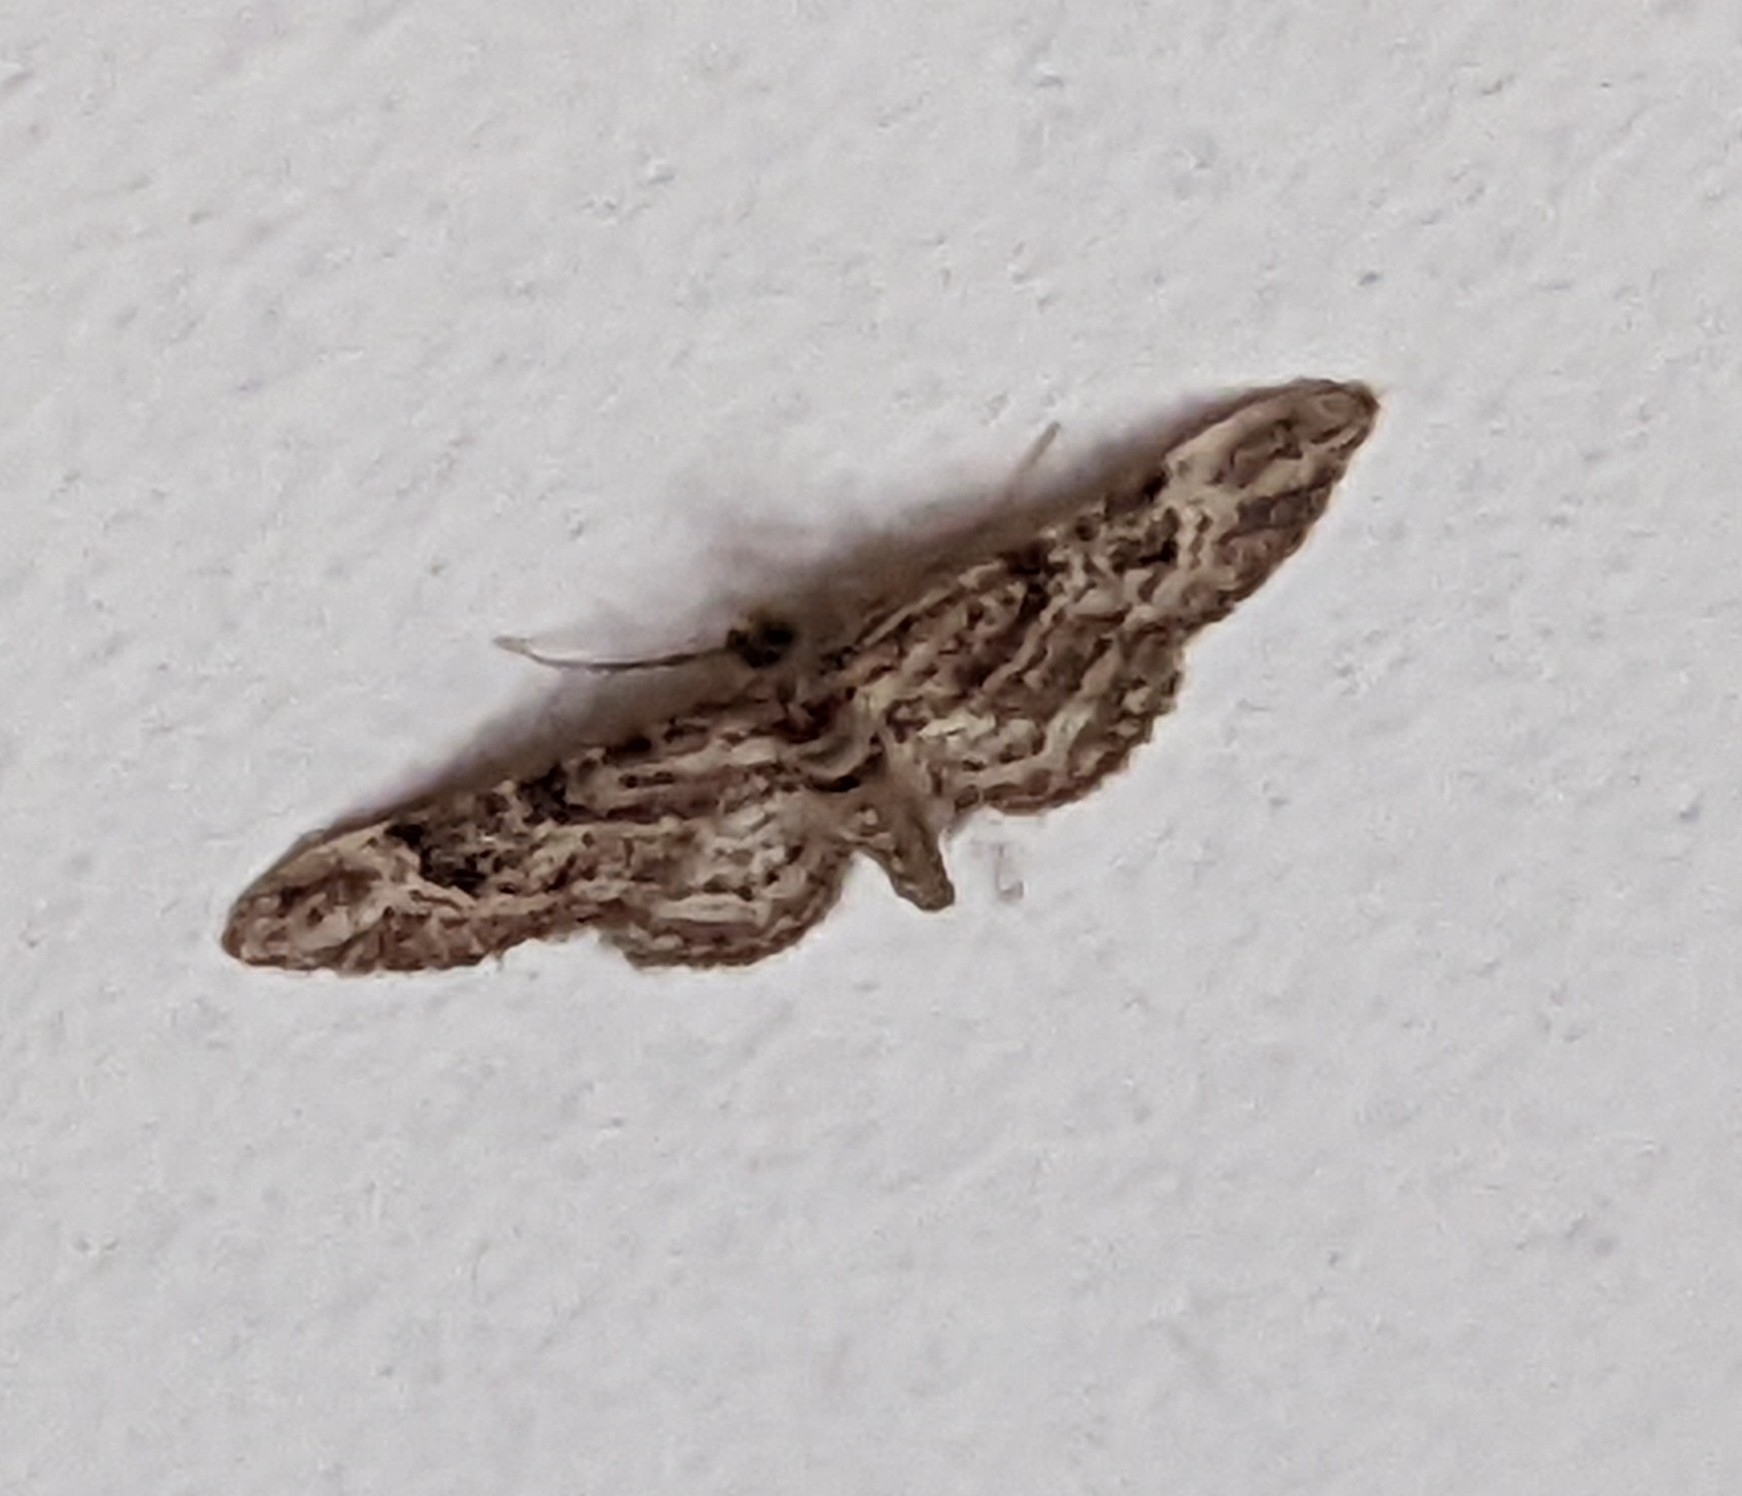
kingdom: Animalia
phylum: Arthropoda
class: Insecta
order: Lepidoptera
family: Geometridae
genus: Gymnoscelis
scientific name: Gymnoscelis rufifasciata
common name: Double-striped pug
